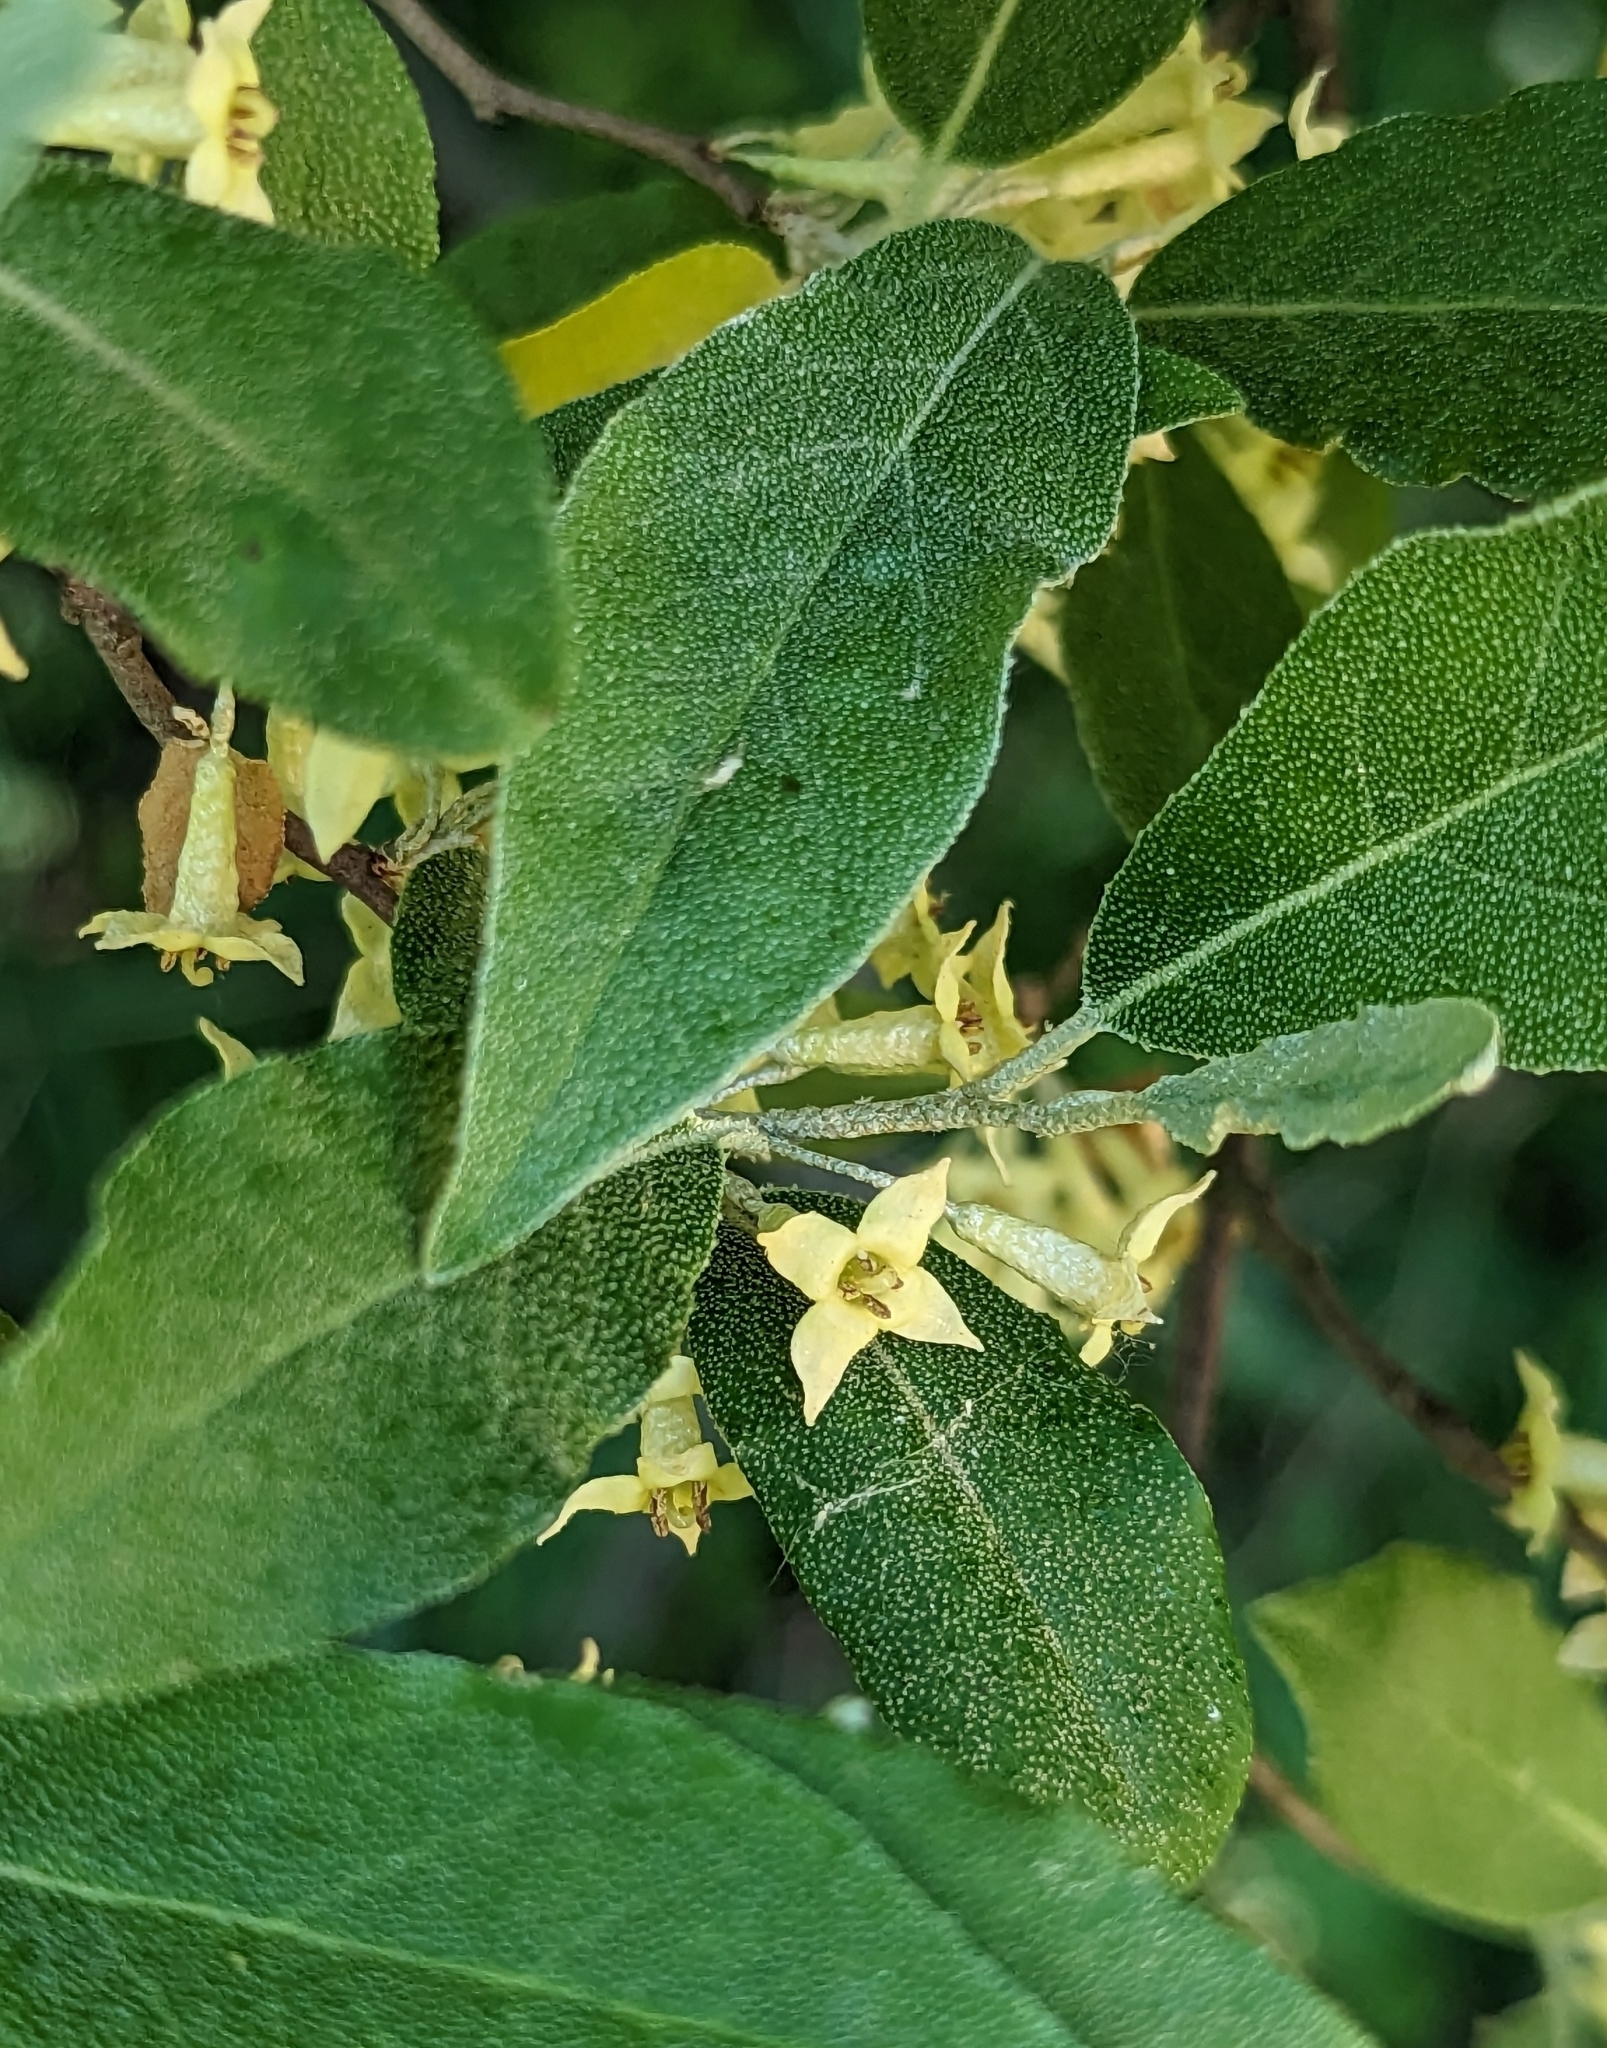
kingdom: Plantae
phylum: Tracheophyta
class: Magnoliopsida
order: Rosales
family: Elaeagnaceae
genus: Elaeagnus
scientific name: Elaeagnus umbellata
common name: Autumn olive
